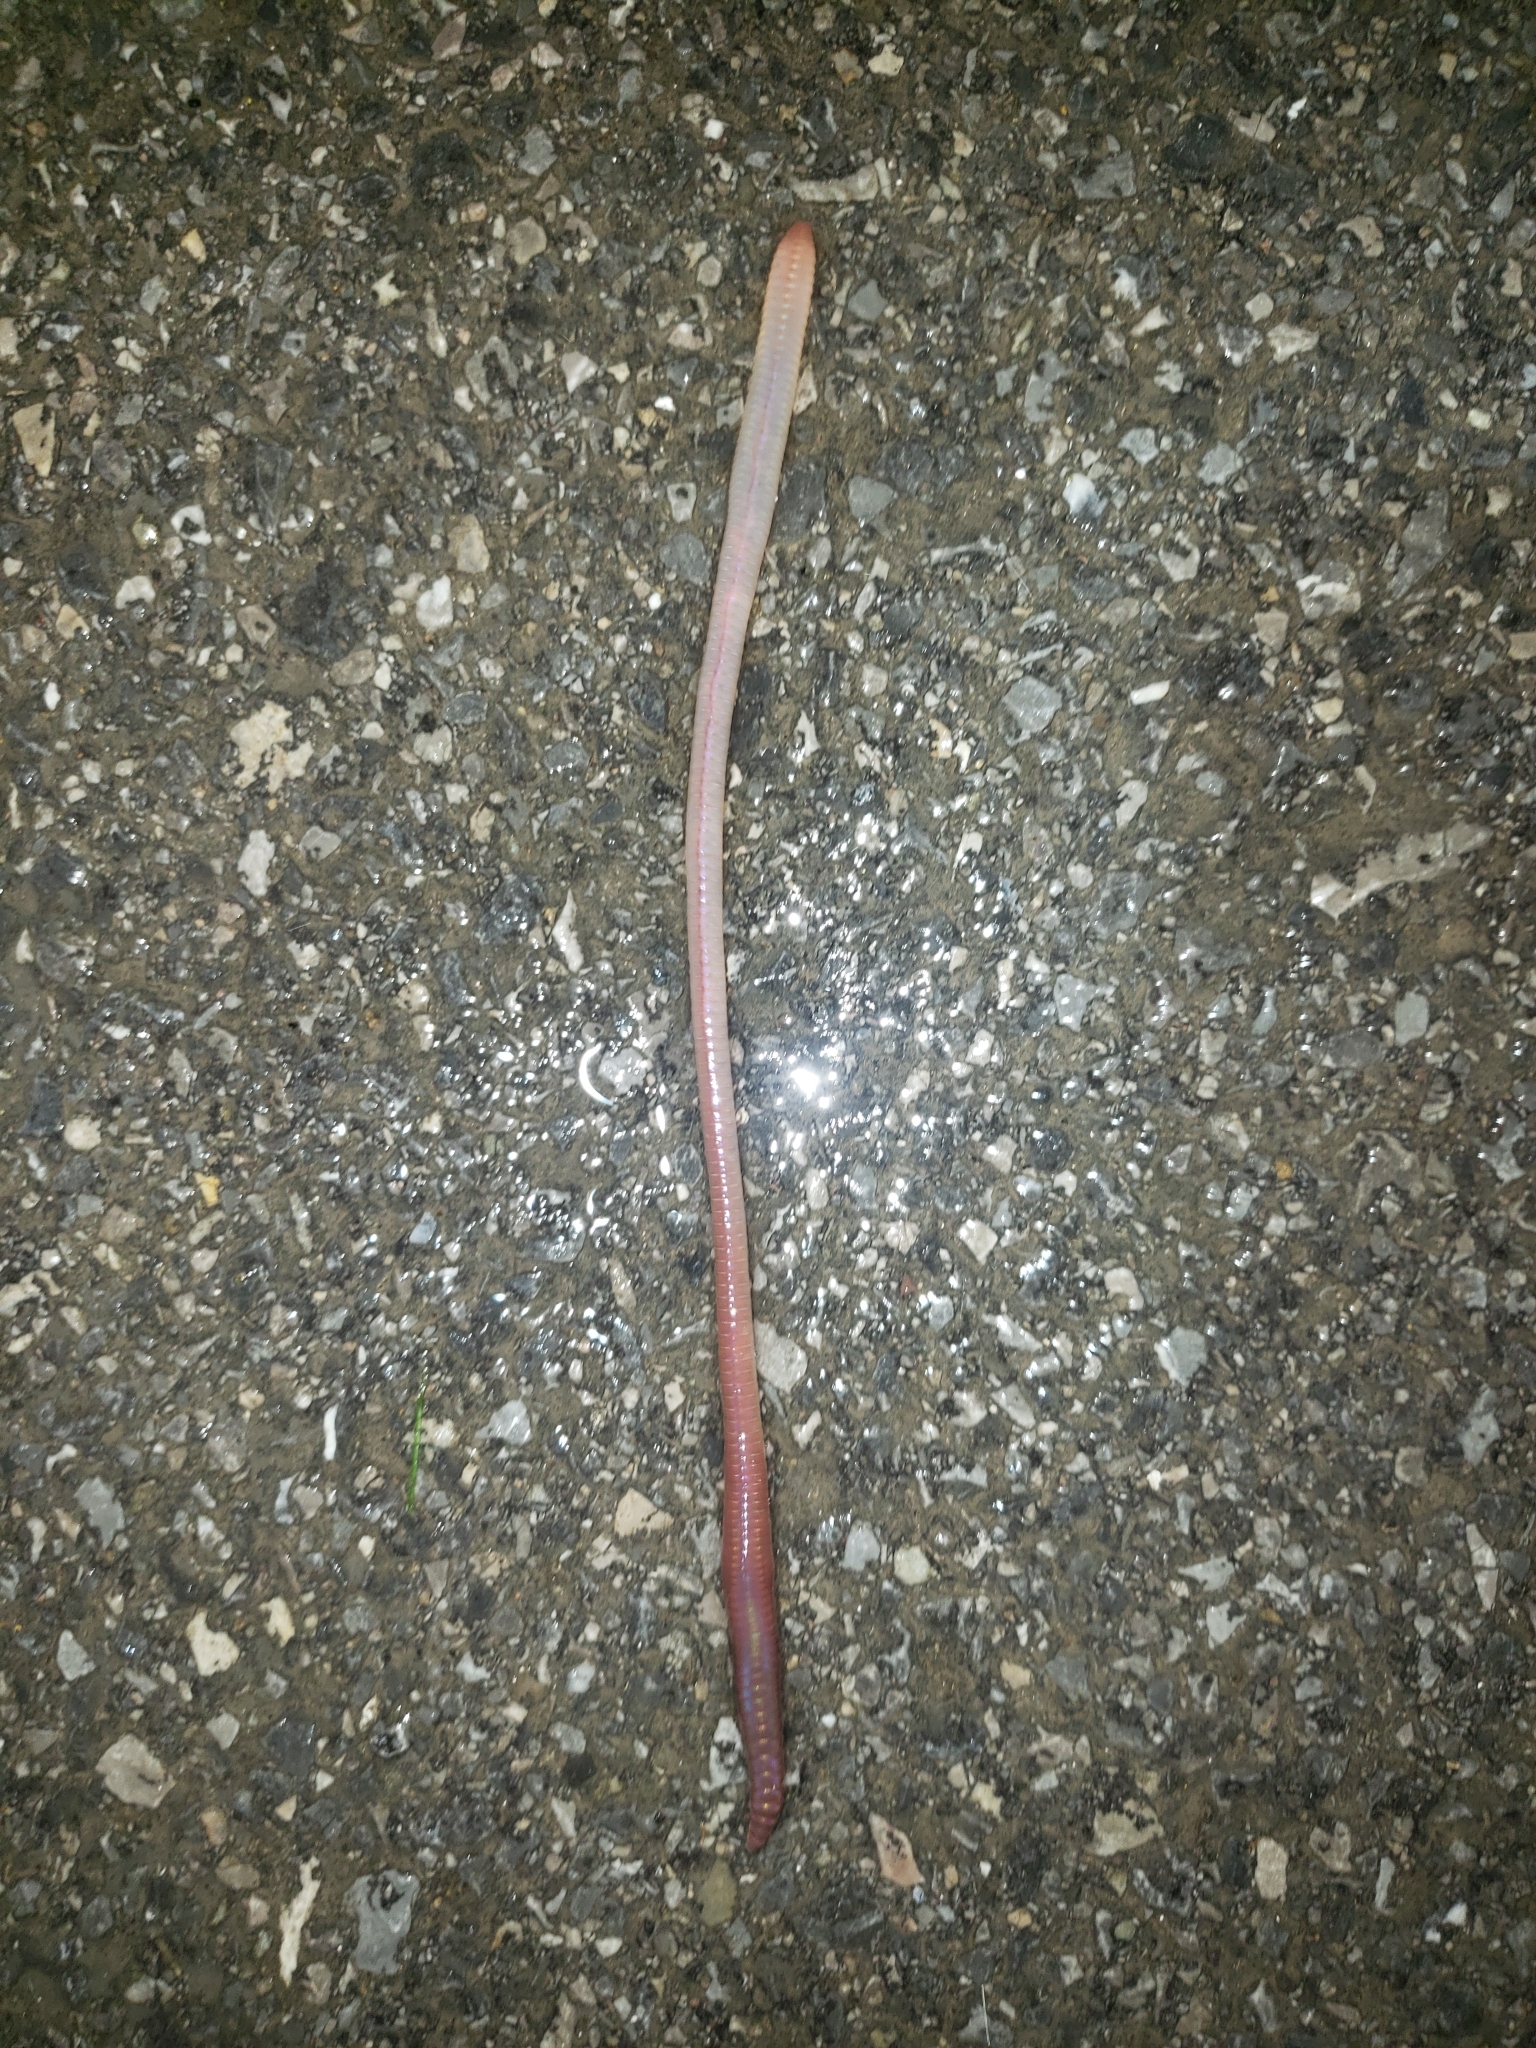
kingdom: Animalia
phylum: Annelida
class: Clitellata
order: Crassiclitellata
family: Lumbricidae
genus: Lumbricus
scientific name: Lumbricus terrestris
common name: Common earthworm
